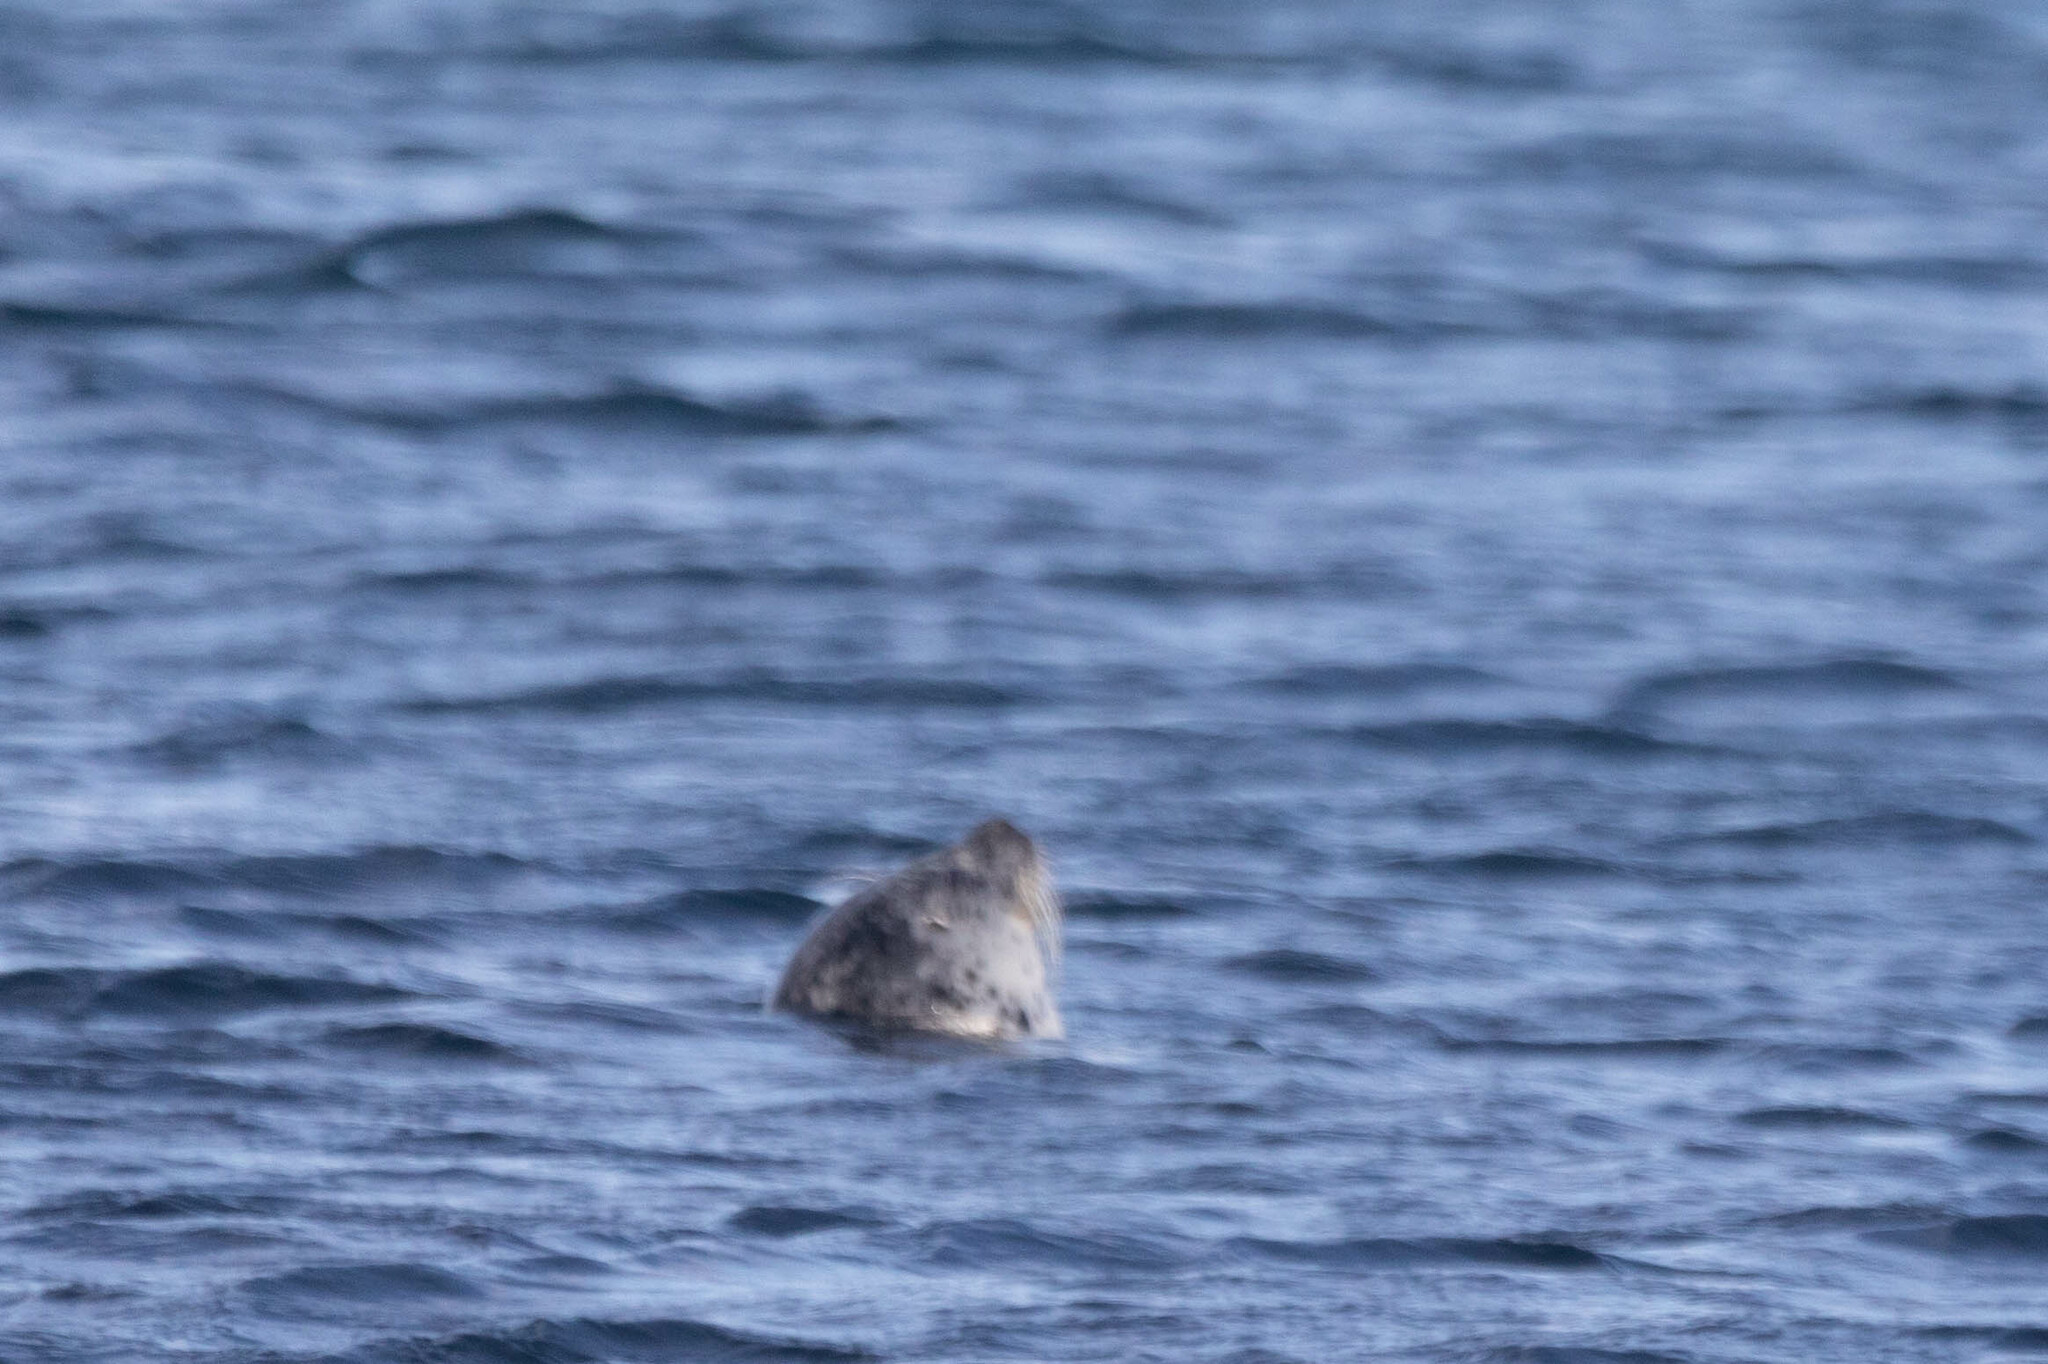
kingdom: Animalia
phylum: Chordata
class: Mammalia
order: Carnivora
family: Phocidae
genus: Phoca
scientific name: Phoca vitulina
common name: Harbor seal
